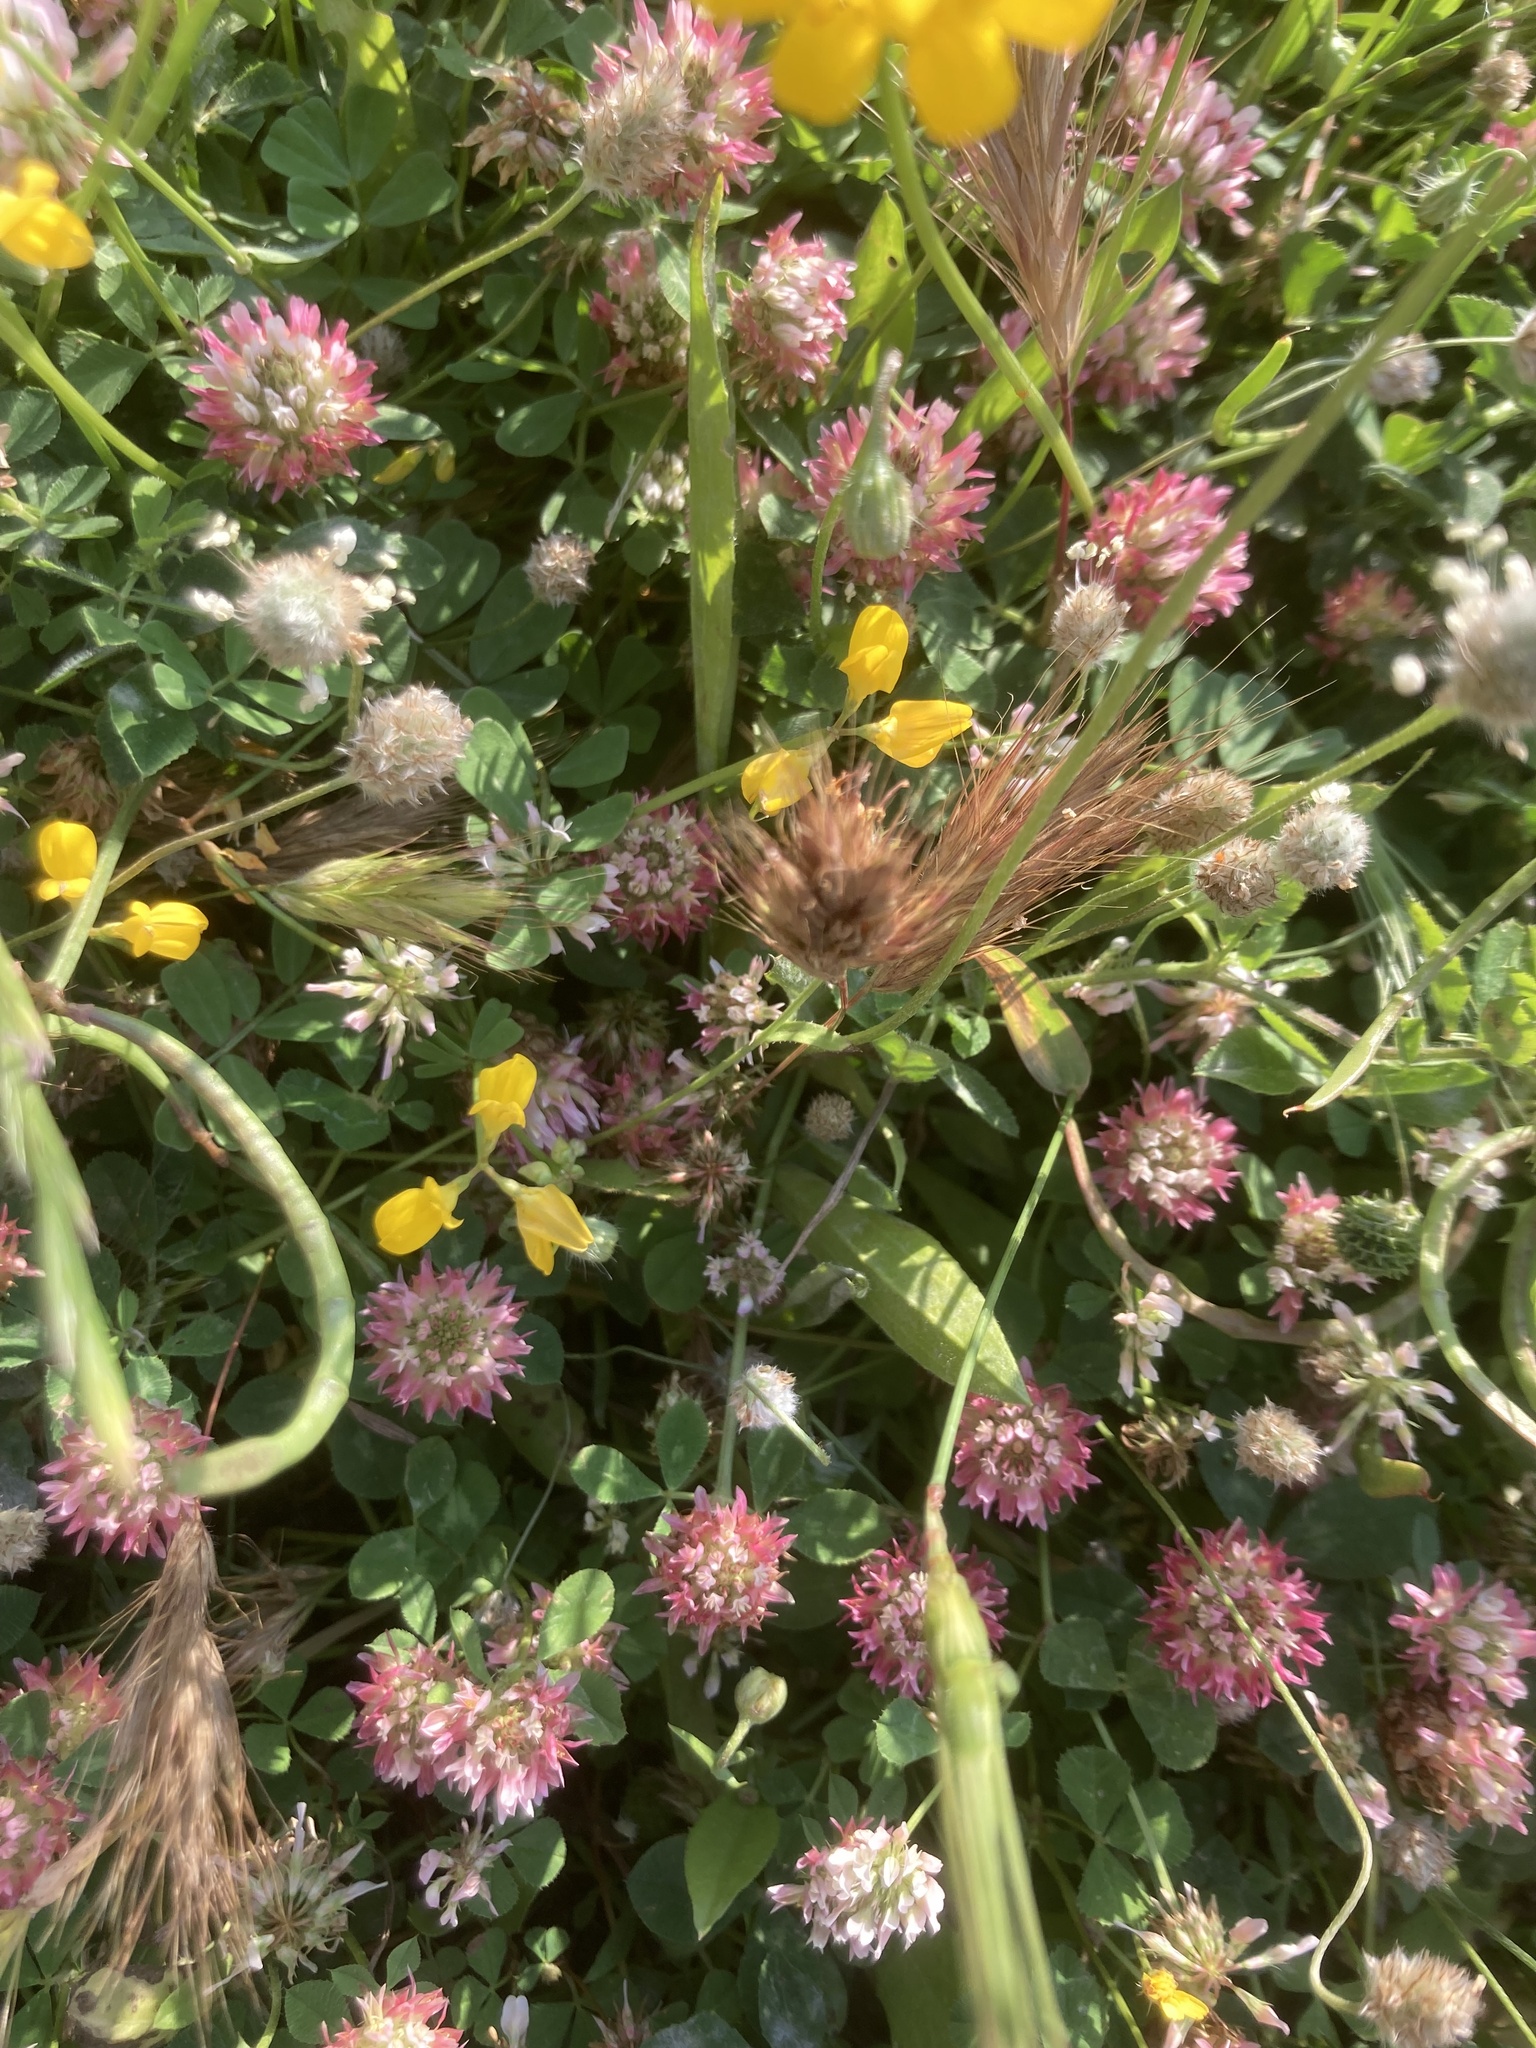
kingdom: Plantae
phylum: Tracheophyta
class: Magnoliopsida
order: Fabales
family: Fabaceae
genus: Trifolium
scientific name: Trifolium argutum
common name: Sharp-tooth clover
